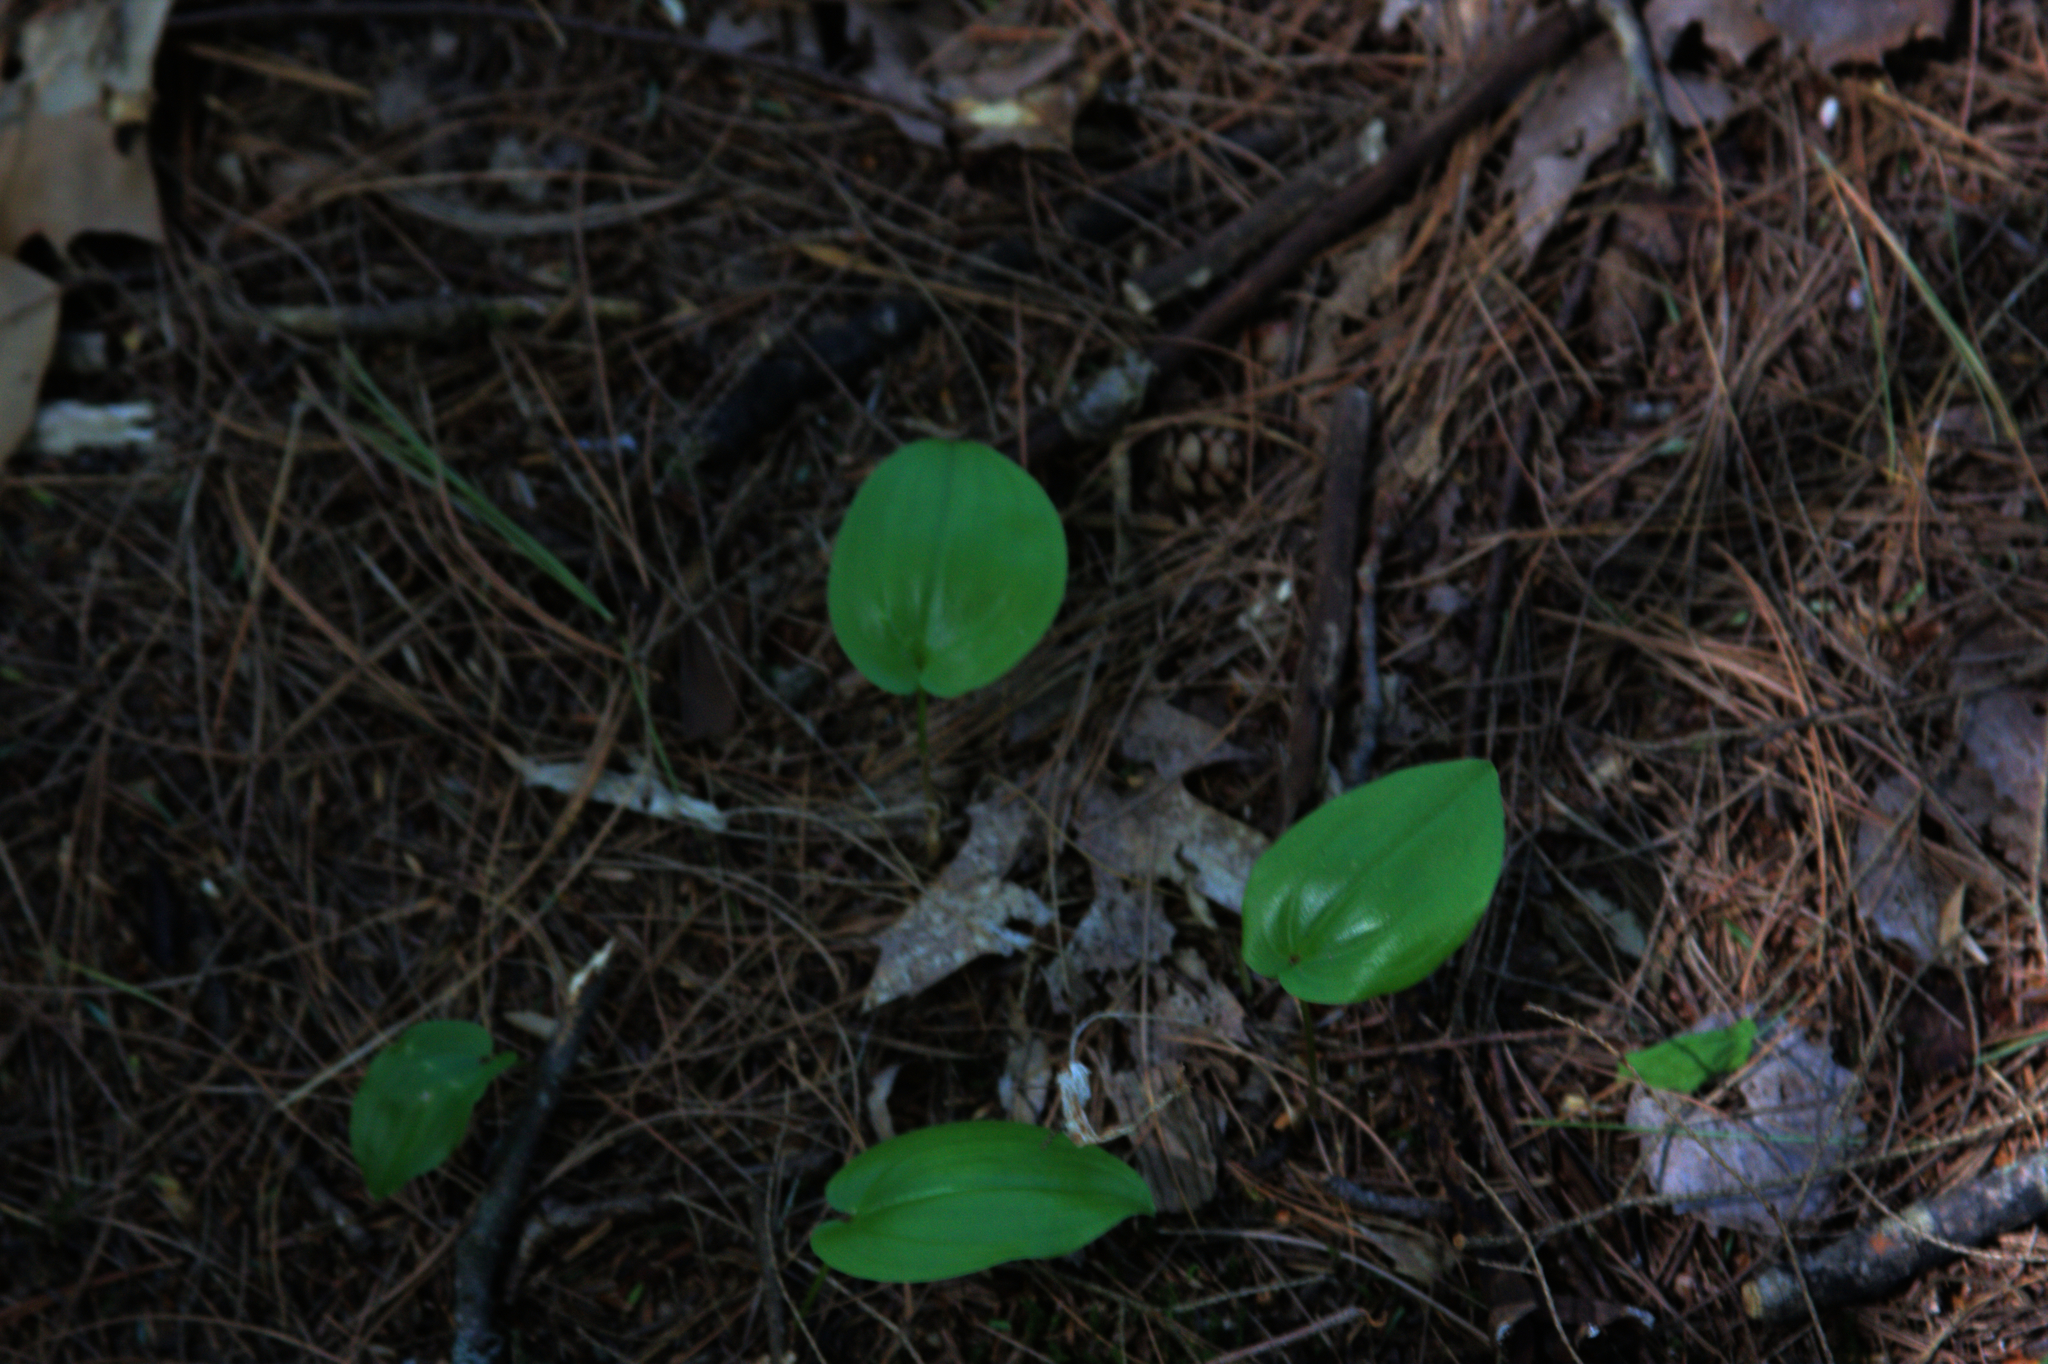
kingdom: Plantae
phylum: Tracheophyta
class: Liliopsida
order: Asparagales
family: Asparagaceae
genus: Maianthemum
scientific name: Maianthemum canadense
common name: False lily-of-the-valley
